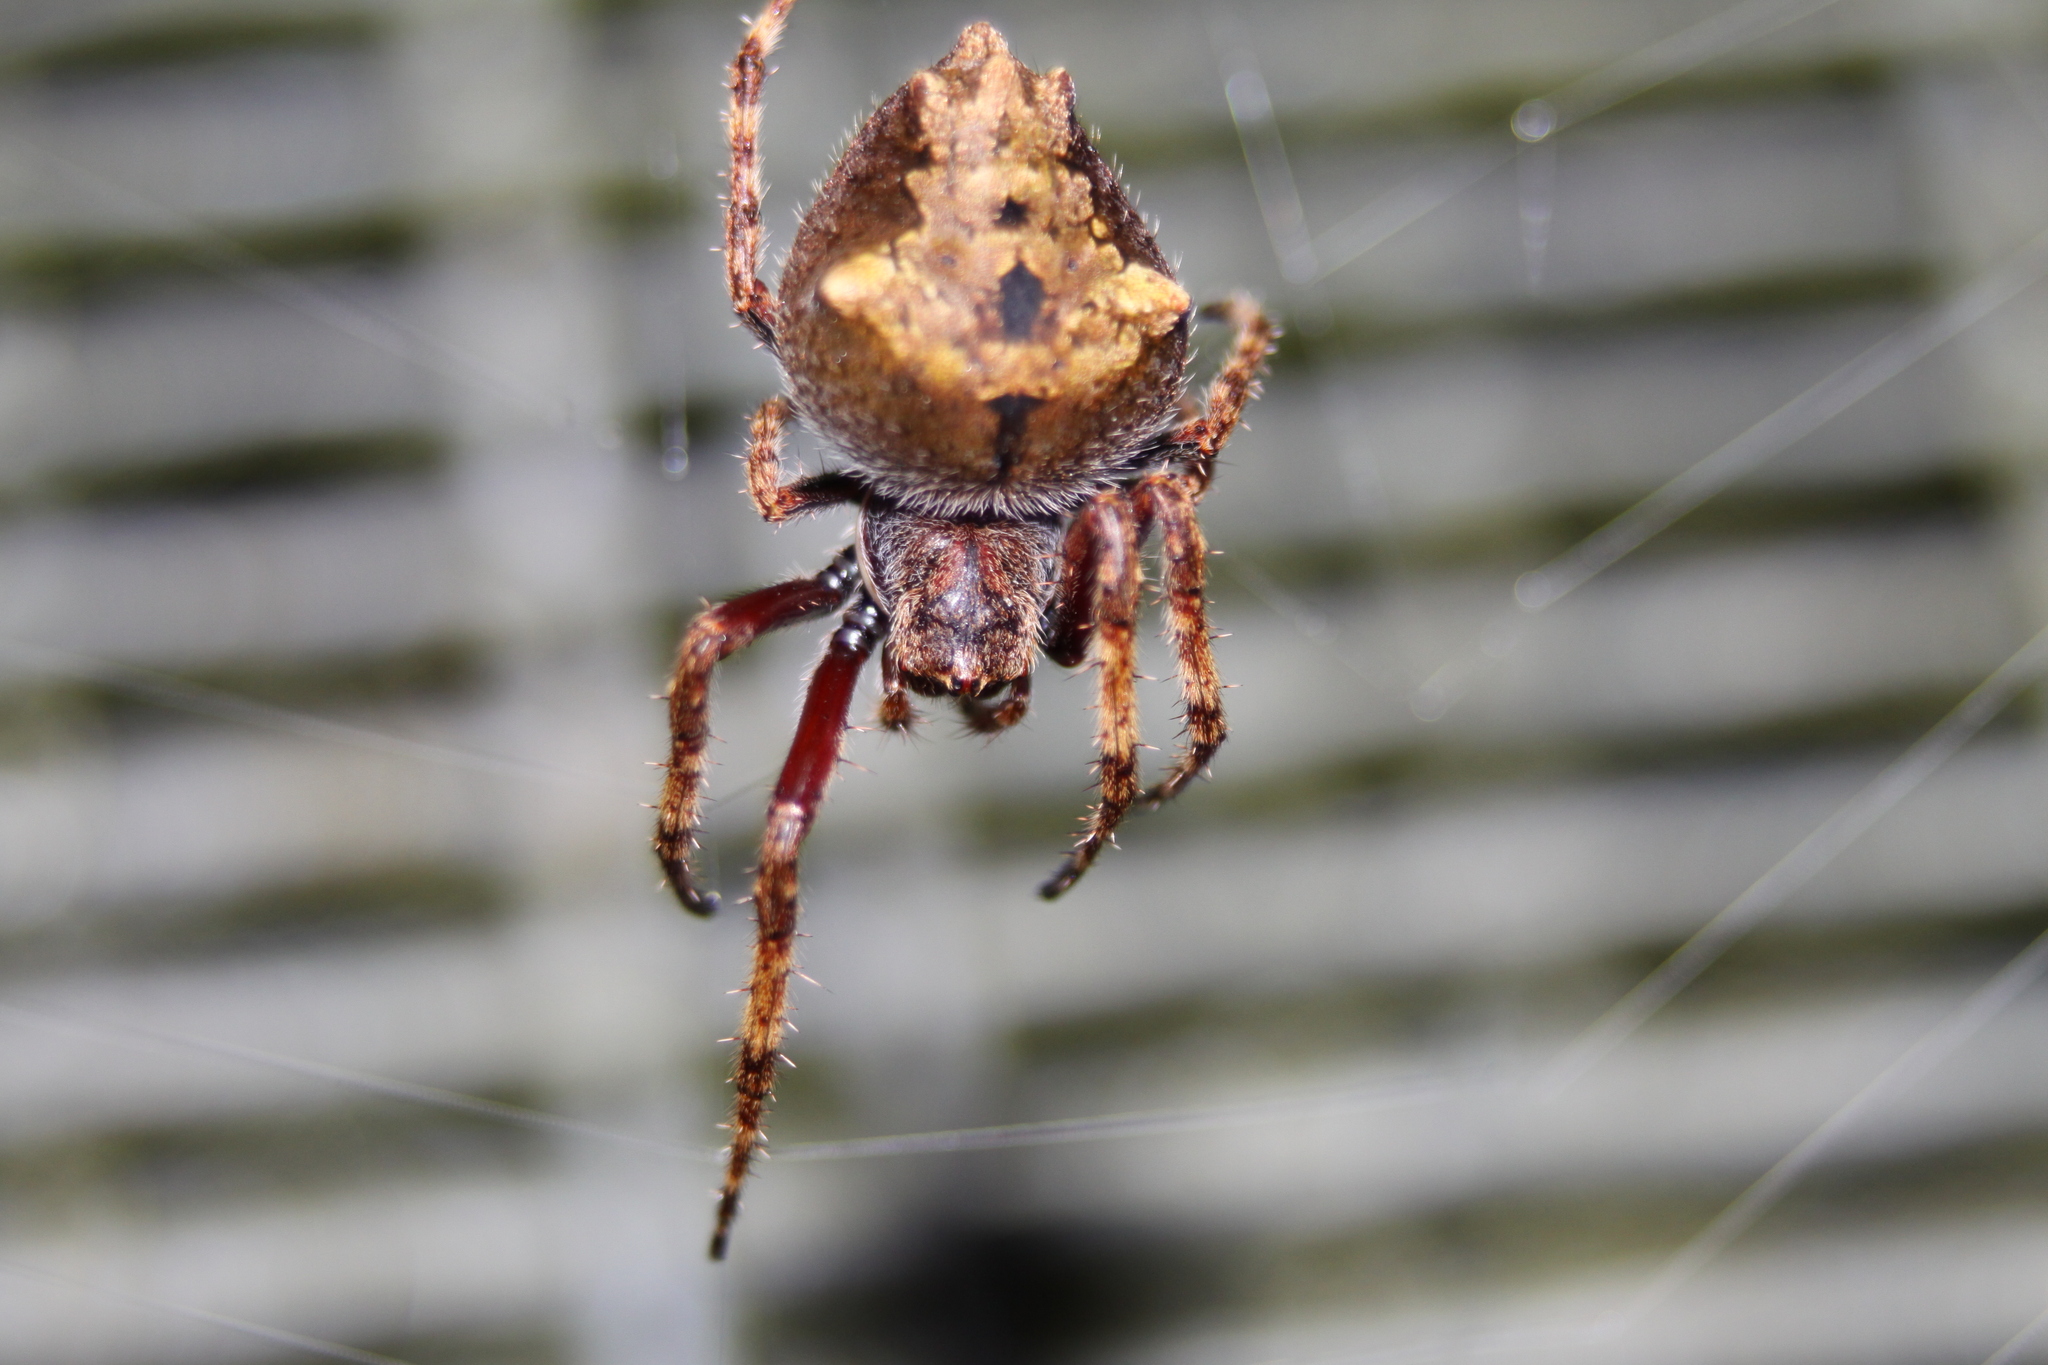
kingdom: Animalia
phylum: Arthropoda
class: Arachnida
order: Araneae
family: Araneidae
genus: Eriophora
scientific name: Eriophora pustulosa
